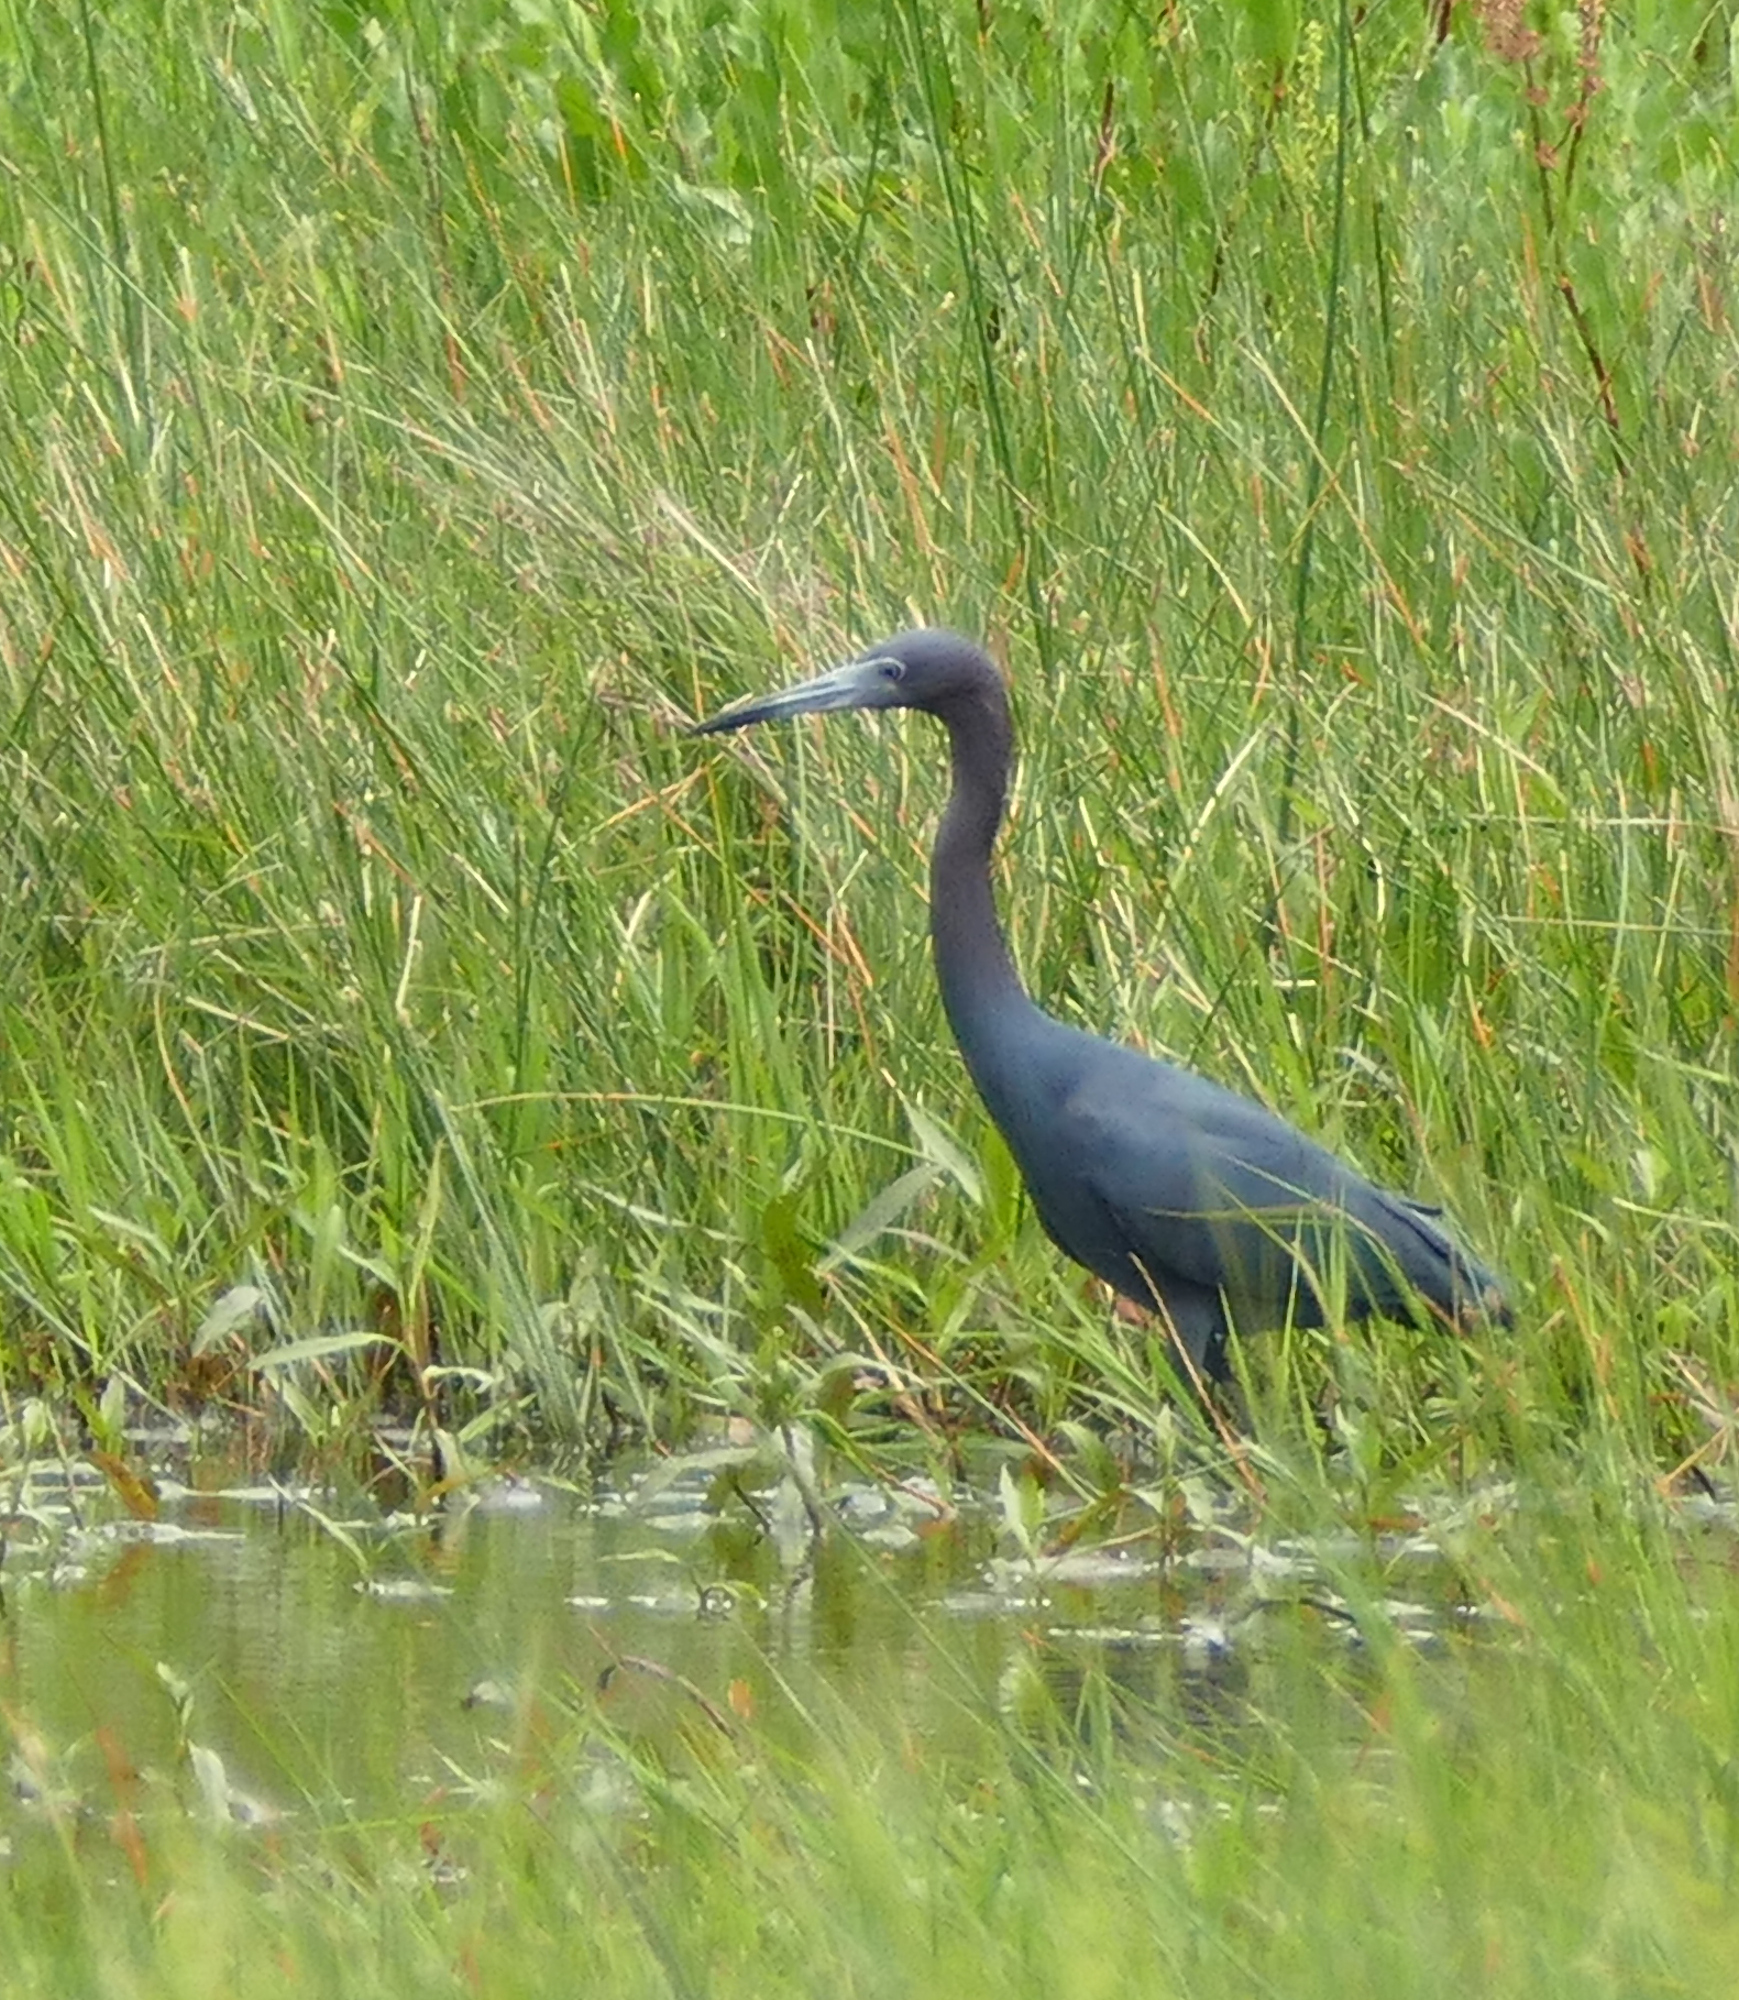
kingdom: Animalia
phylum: Chordata
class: Aves
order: Pelecaniformes
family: Ardeidae
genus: Egretta
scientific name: Egretta caerulea
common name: Little blue heron
